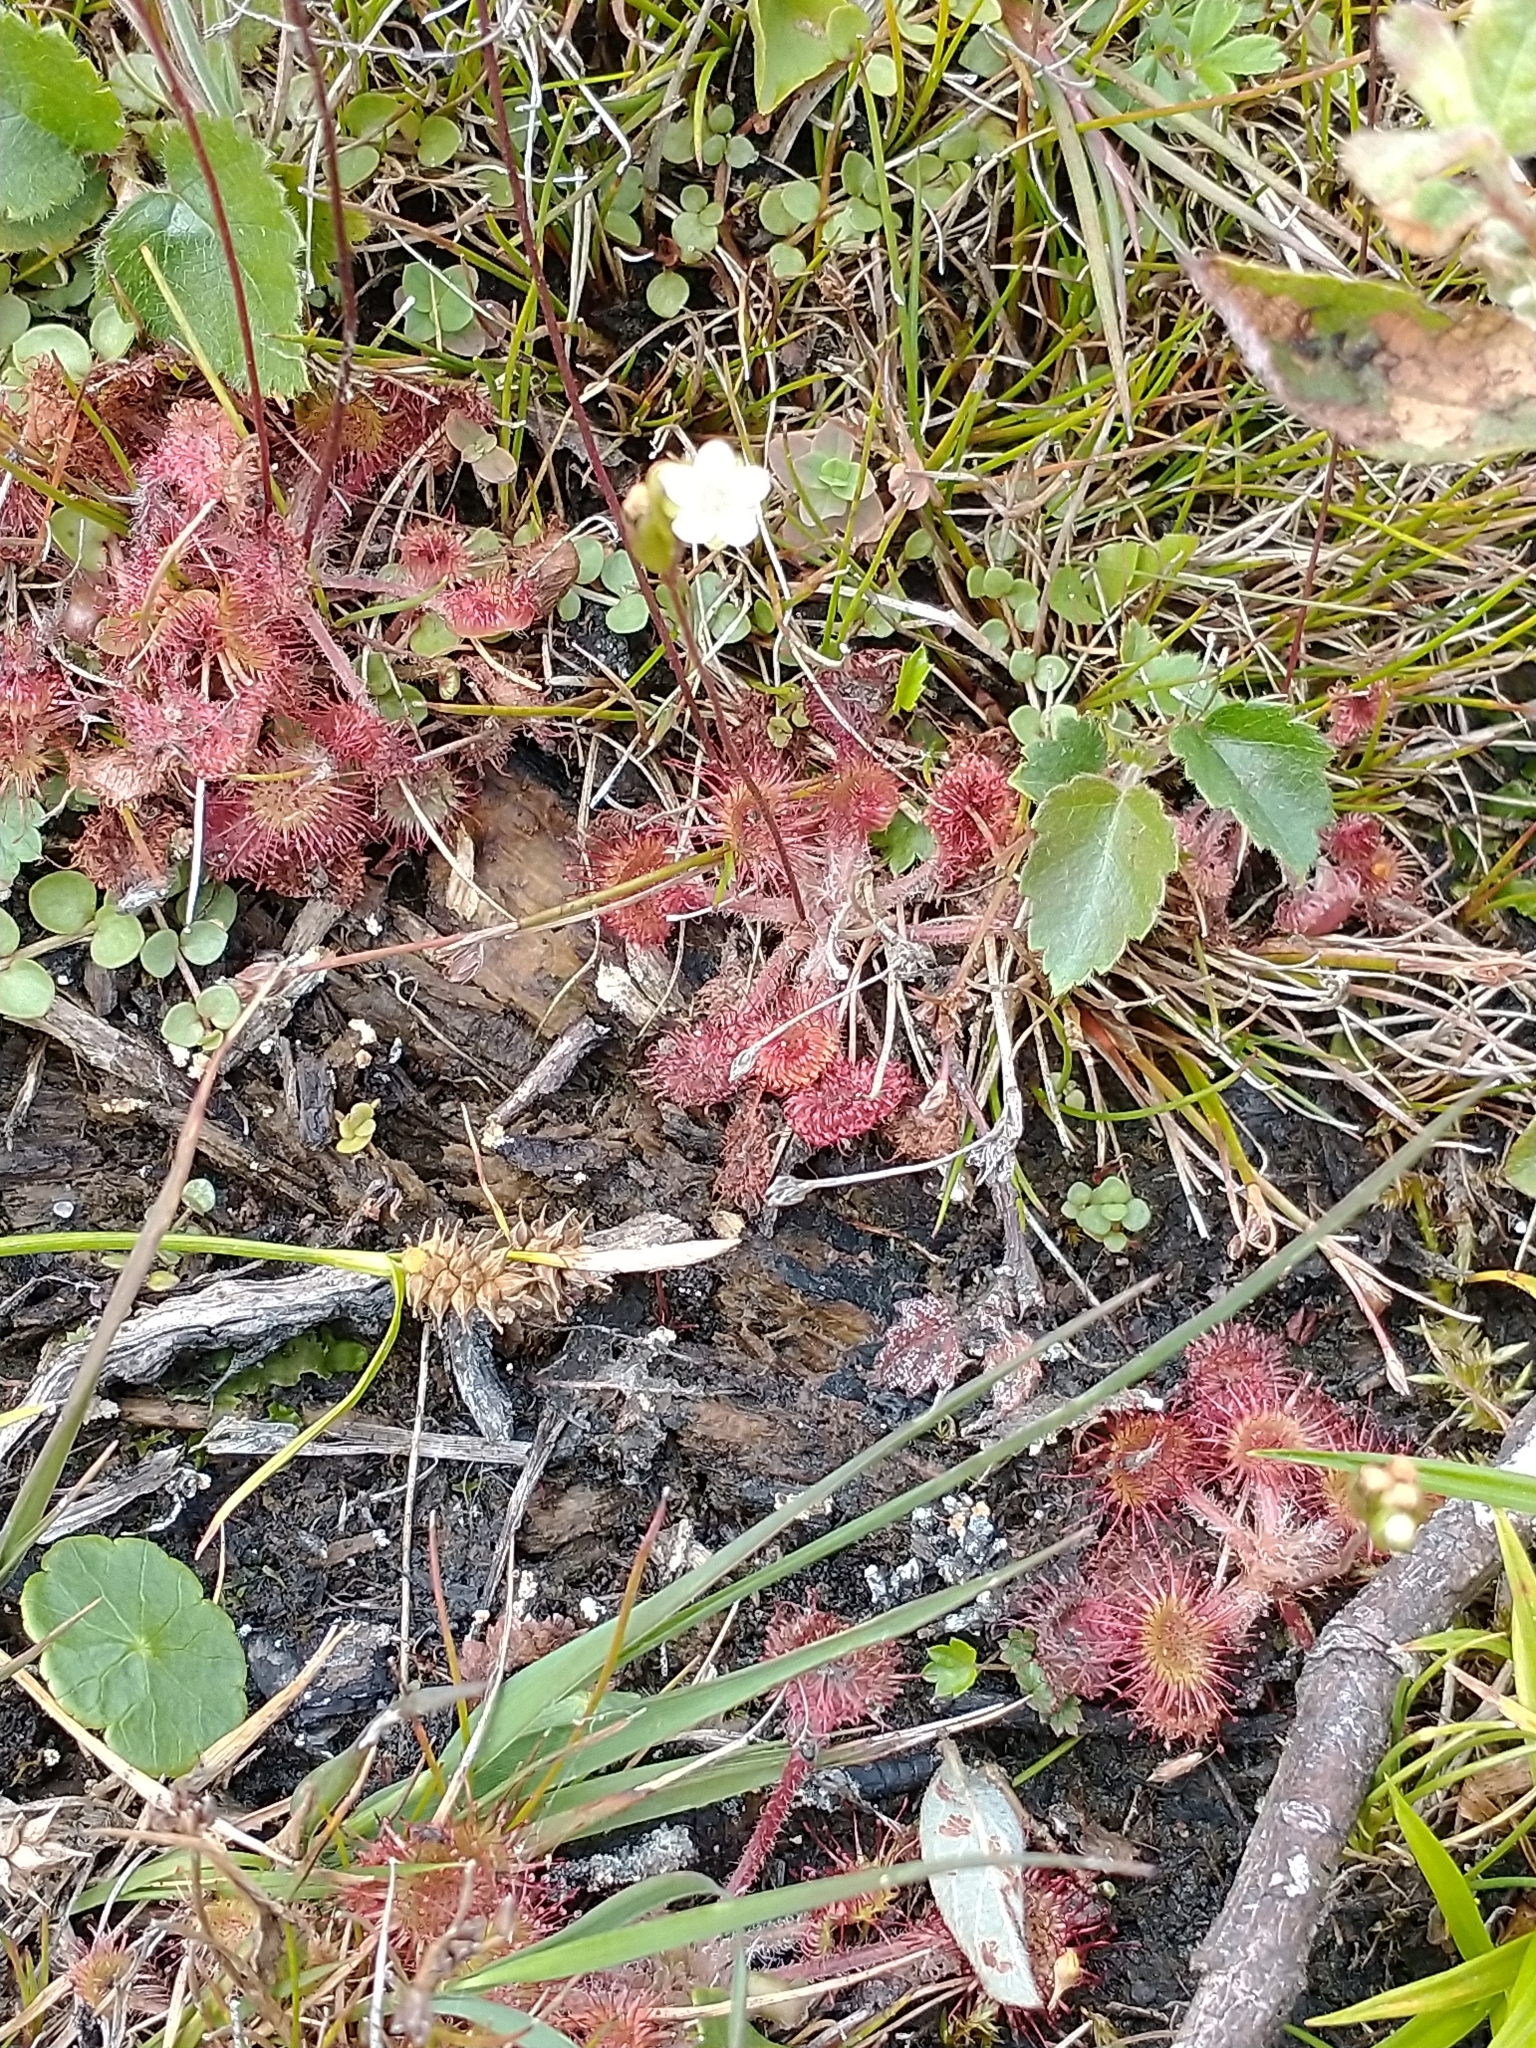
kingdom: Plantae
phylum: Tracheophyta
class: Magnoliopsida
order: Caryophyllales
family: Droseraceae
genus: Drosera
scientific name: Drosera rotundifolia
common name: Round-leaved sundew
